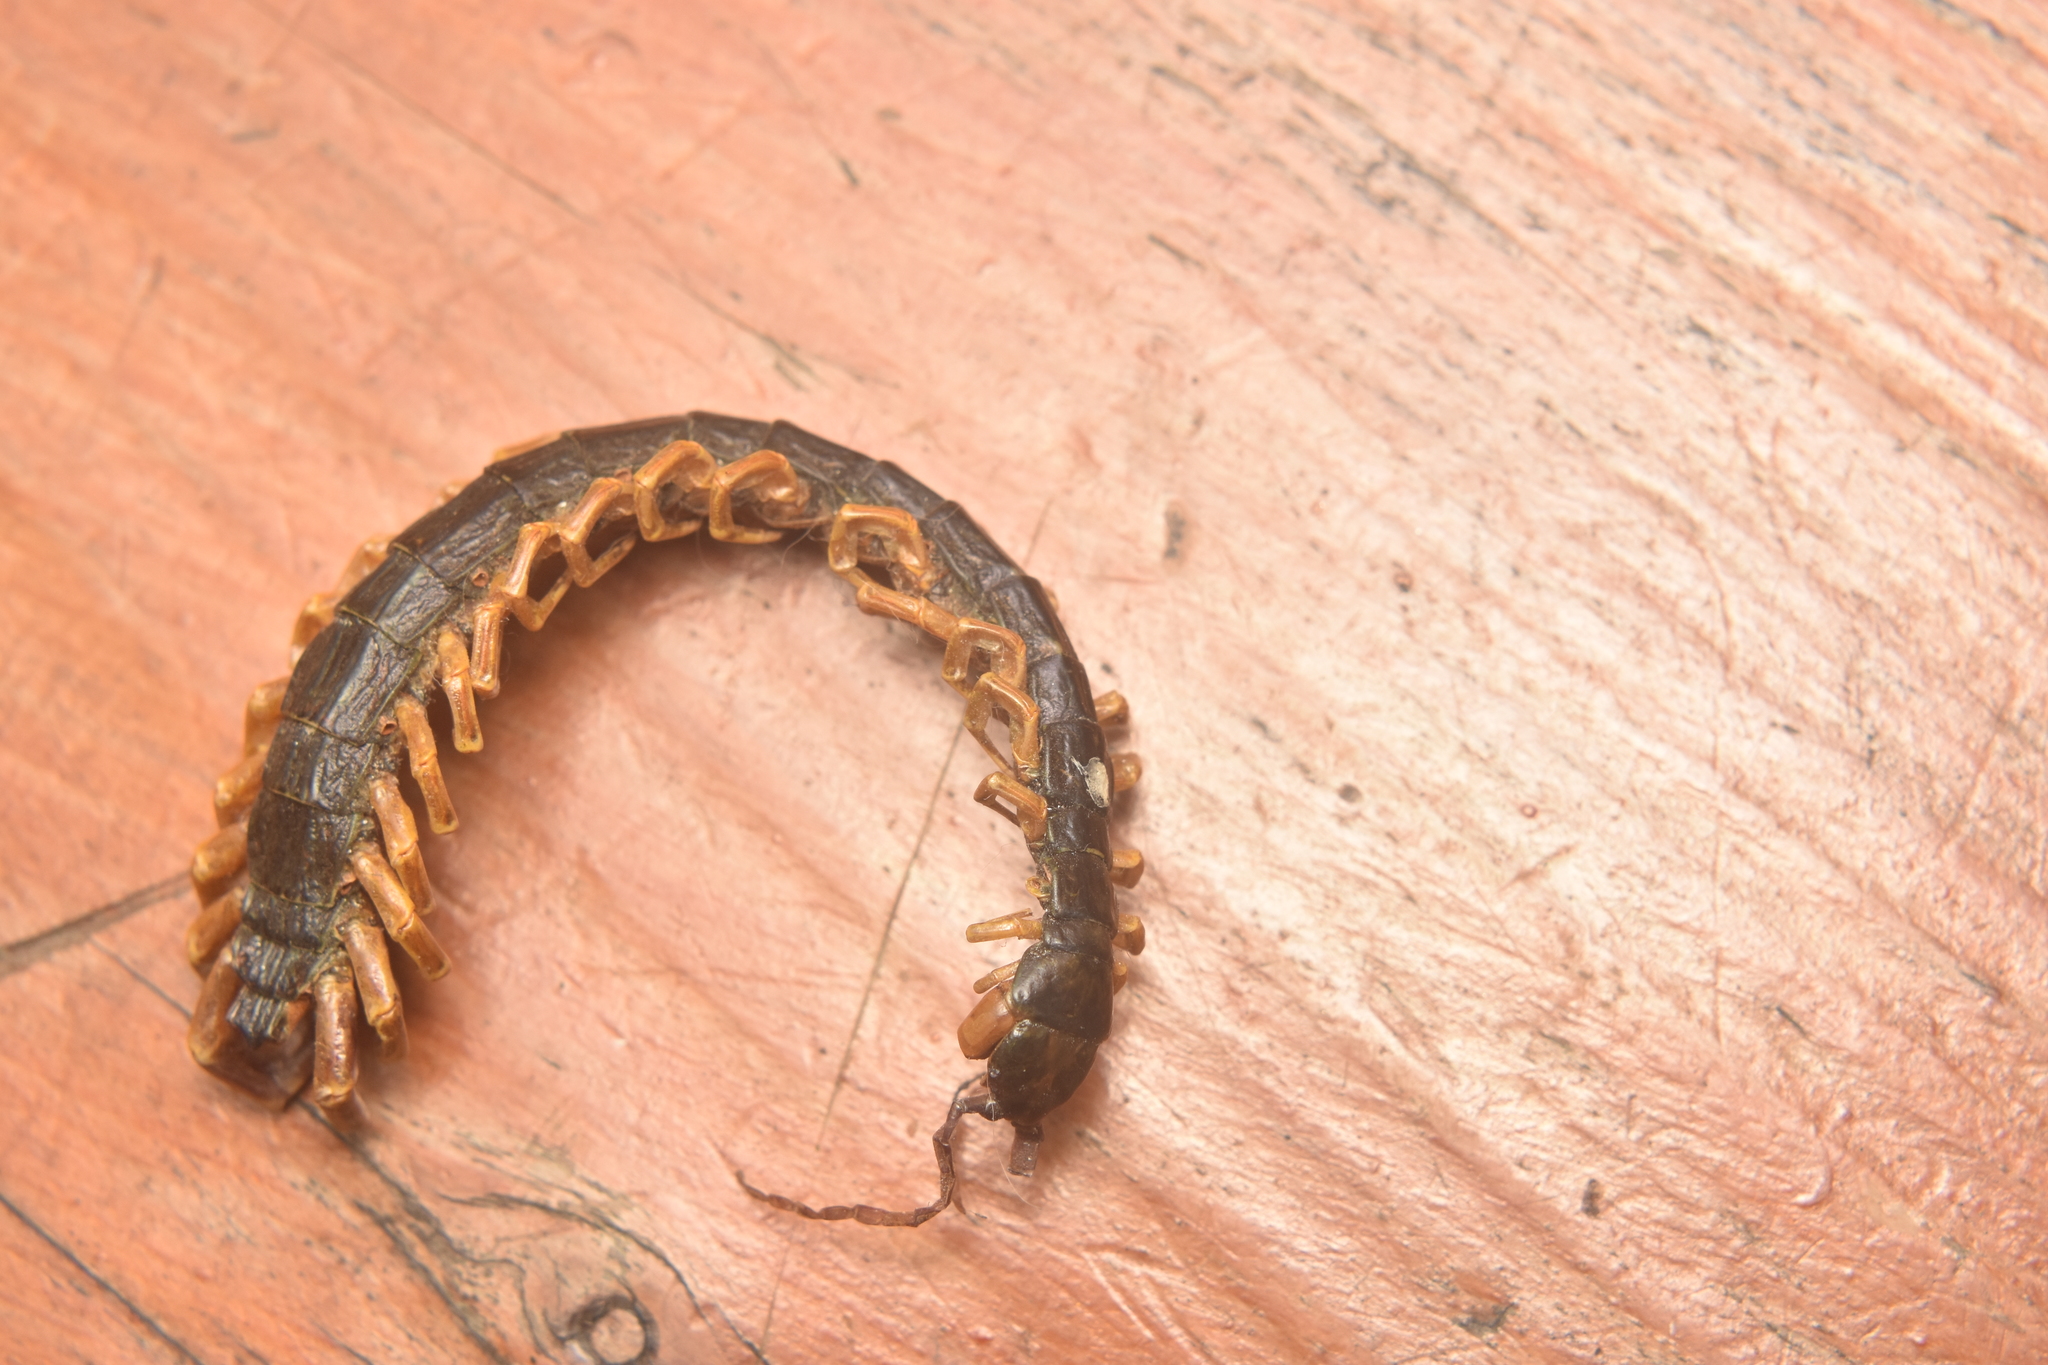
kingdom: Animalia
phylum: Arthropoda
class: Chilopoda
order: Scolopendromorpha
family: Scolopendridae
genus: Otostigmus
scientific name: Otostigmus rex
